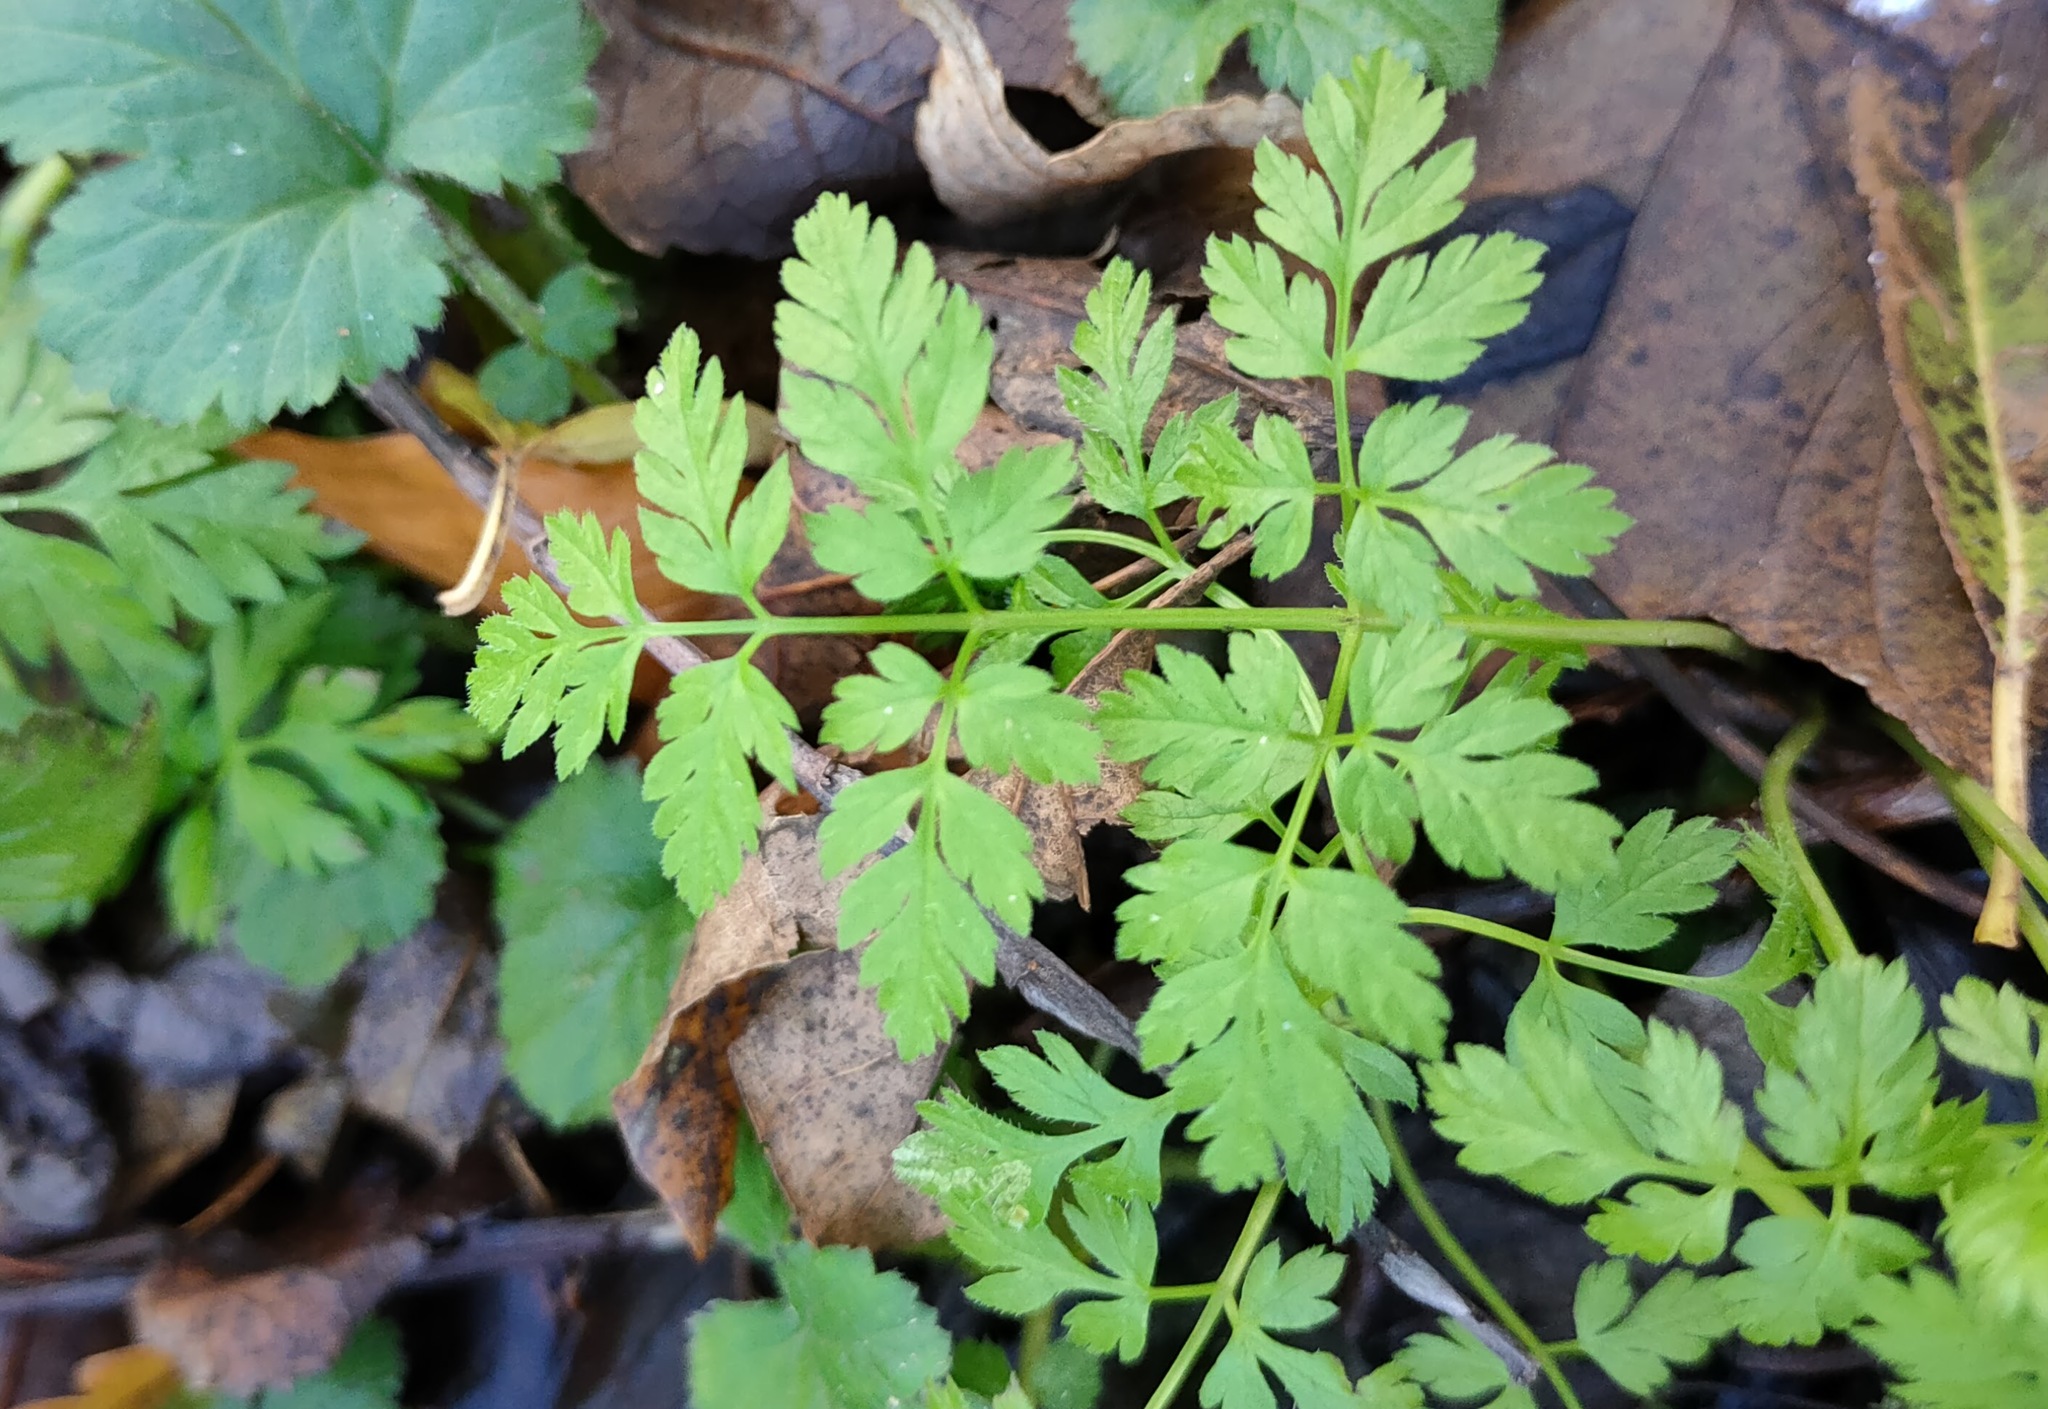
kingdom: Plantae
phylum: Tracheophyta
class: Magnoliopsida
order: Apiales
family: Apiaceae
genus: Anthriscus
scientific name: Anthriscus sylvestris
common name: Cow parsley
